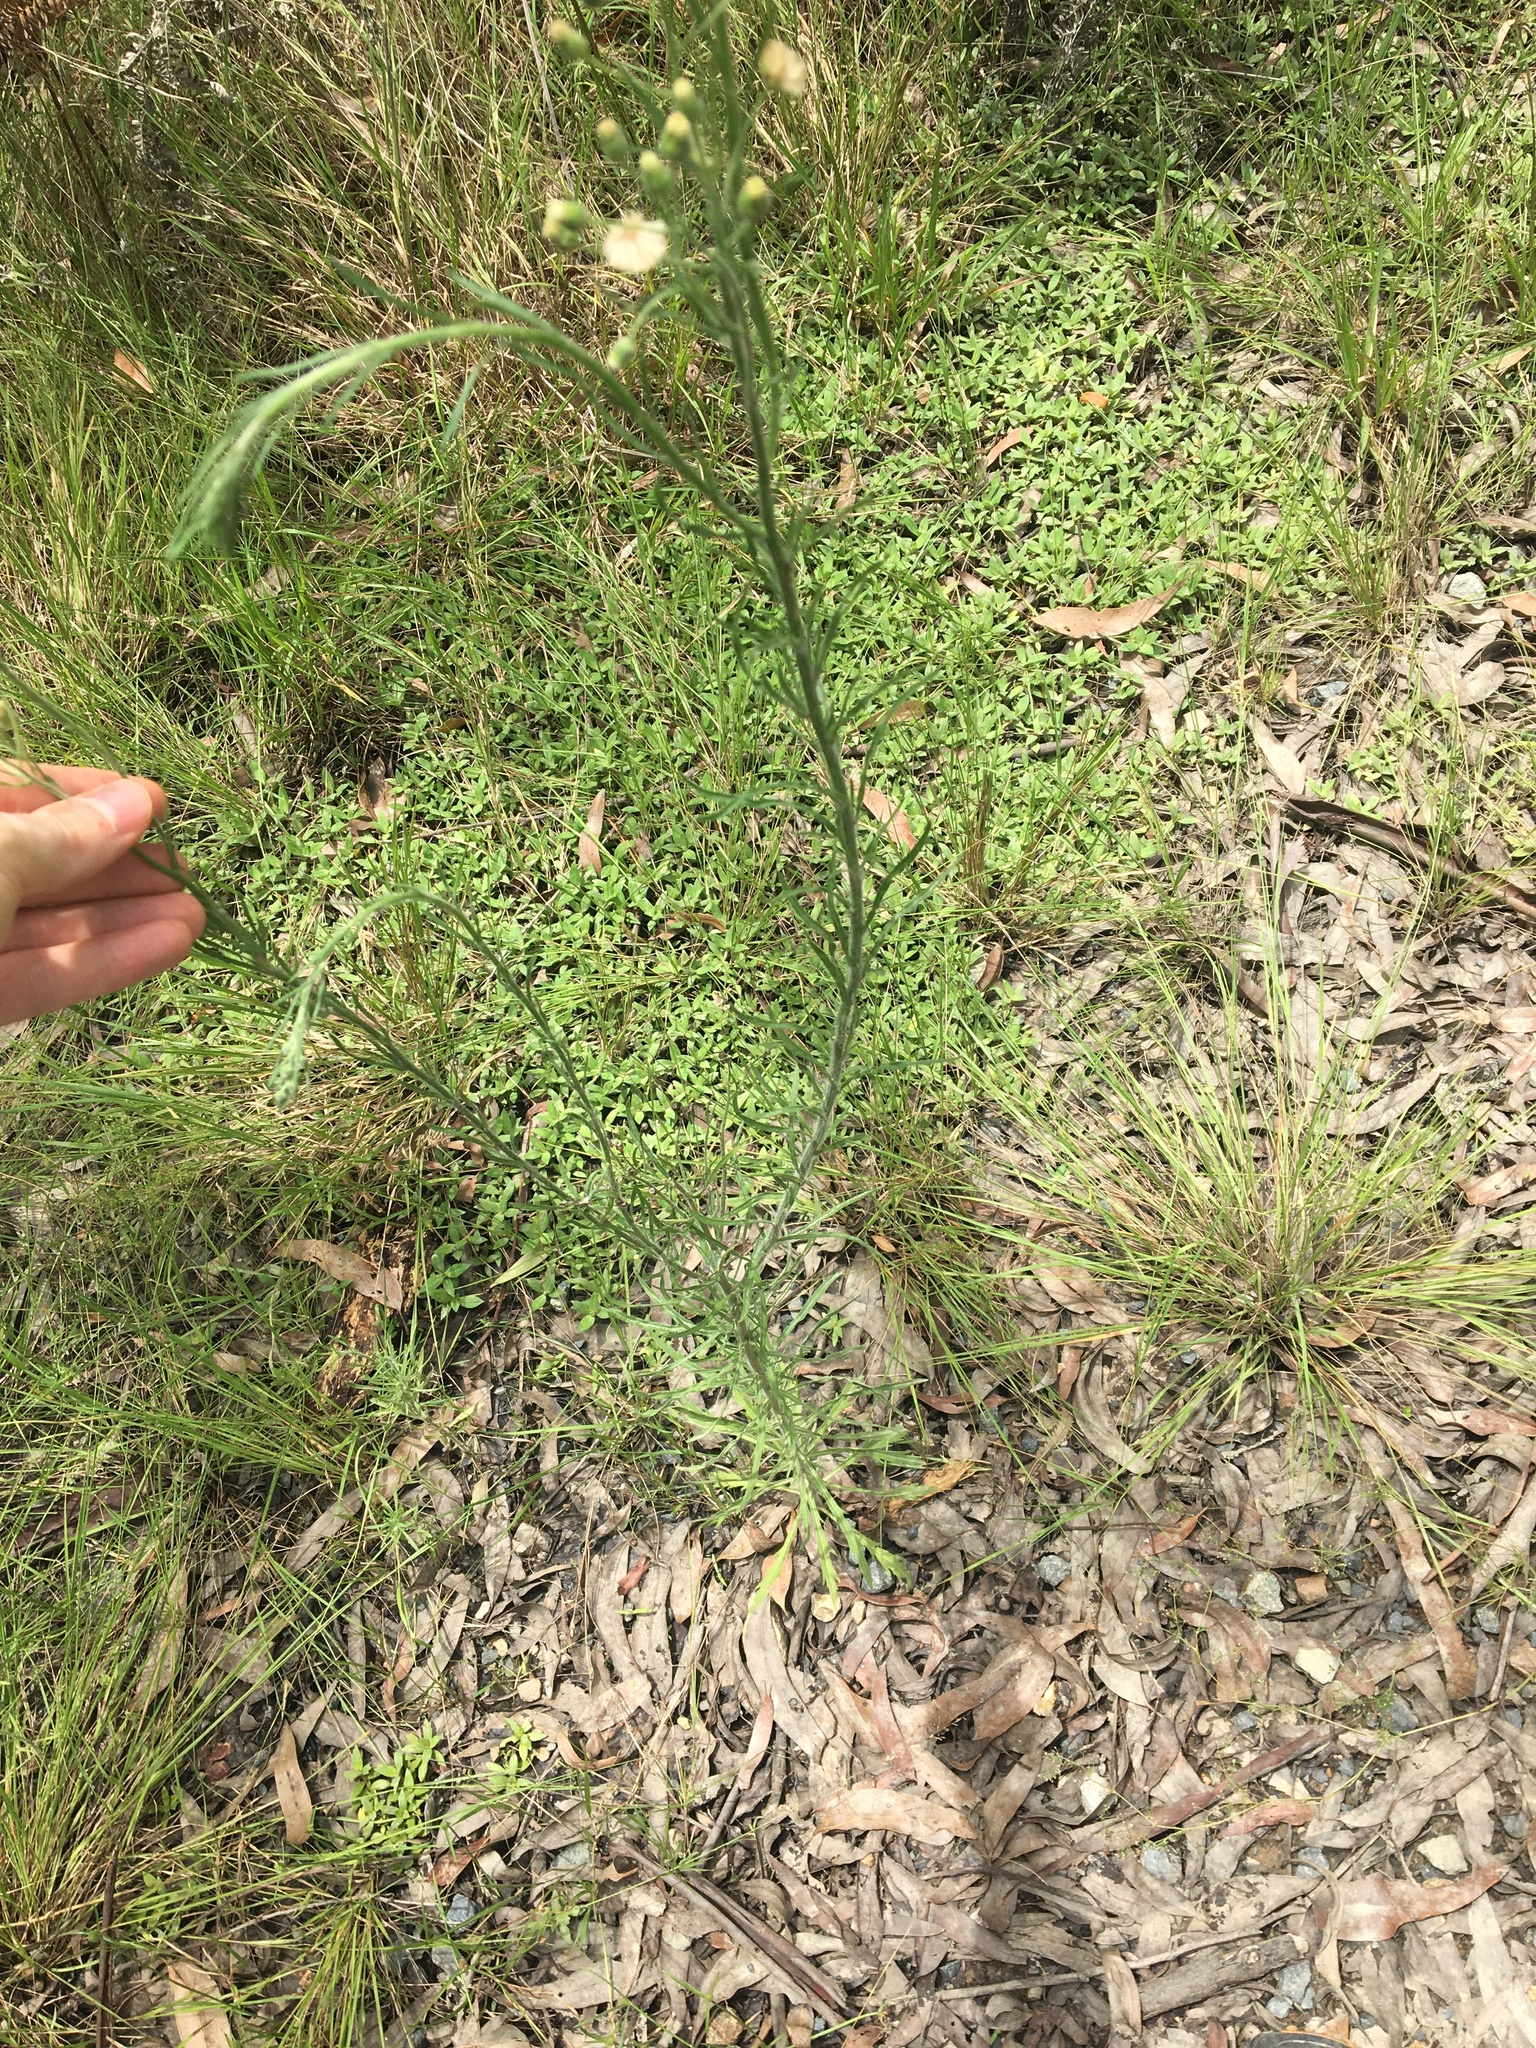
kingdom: Plantae
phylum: Tracheophyta
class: Magnoliopsida
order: Asterales
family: Asteraceae
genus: Erigeron
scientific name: Erigeron bonariensis
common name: Argentine fleabane
